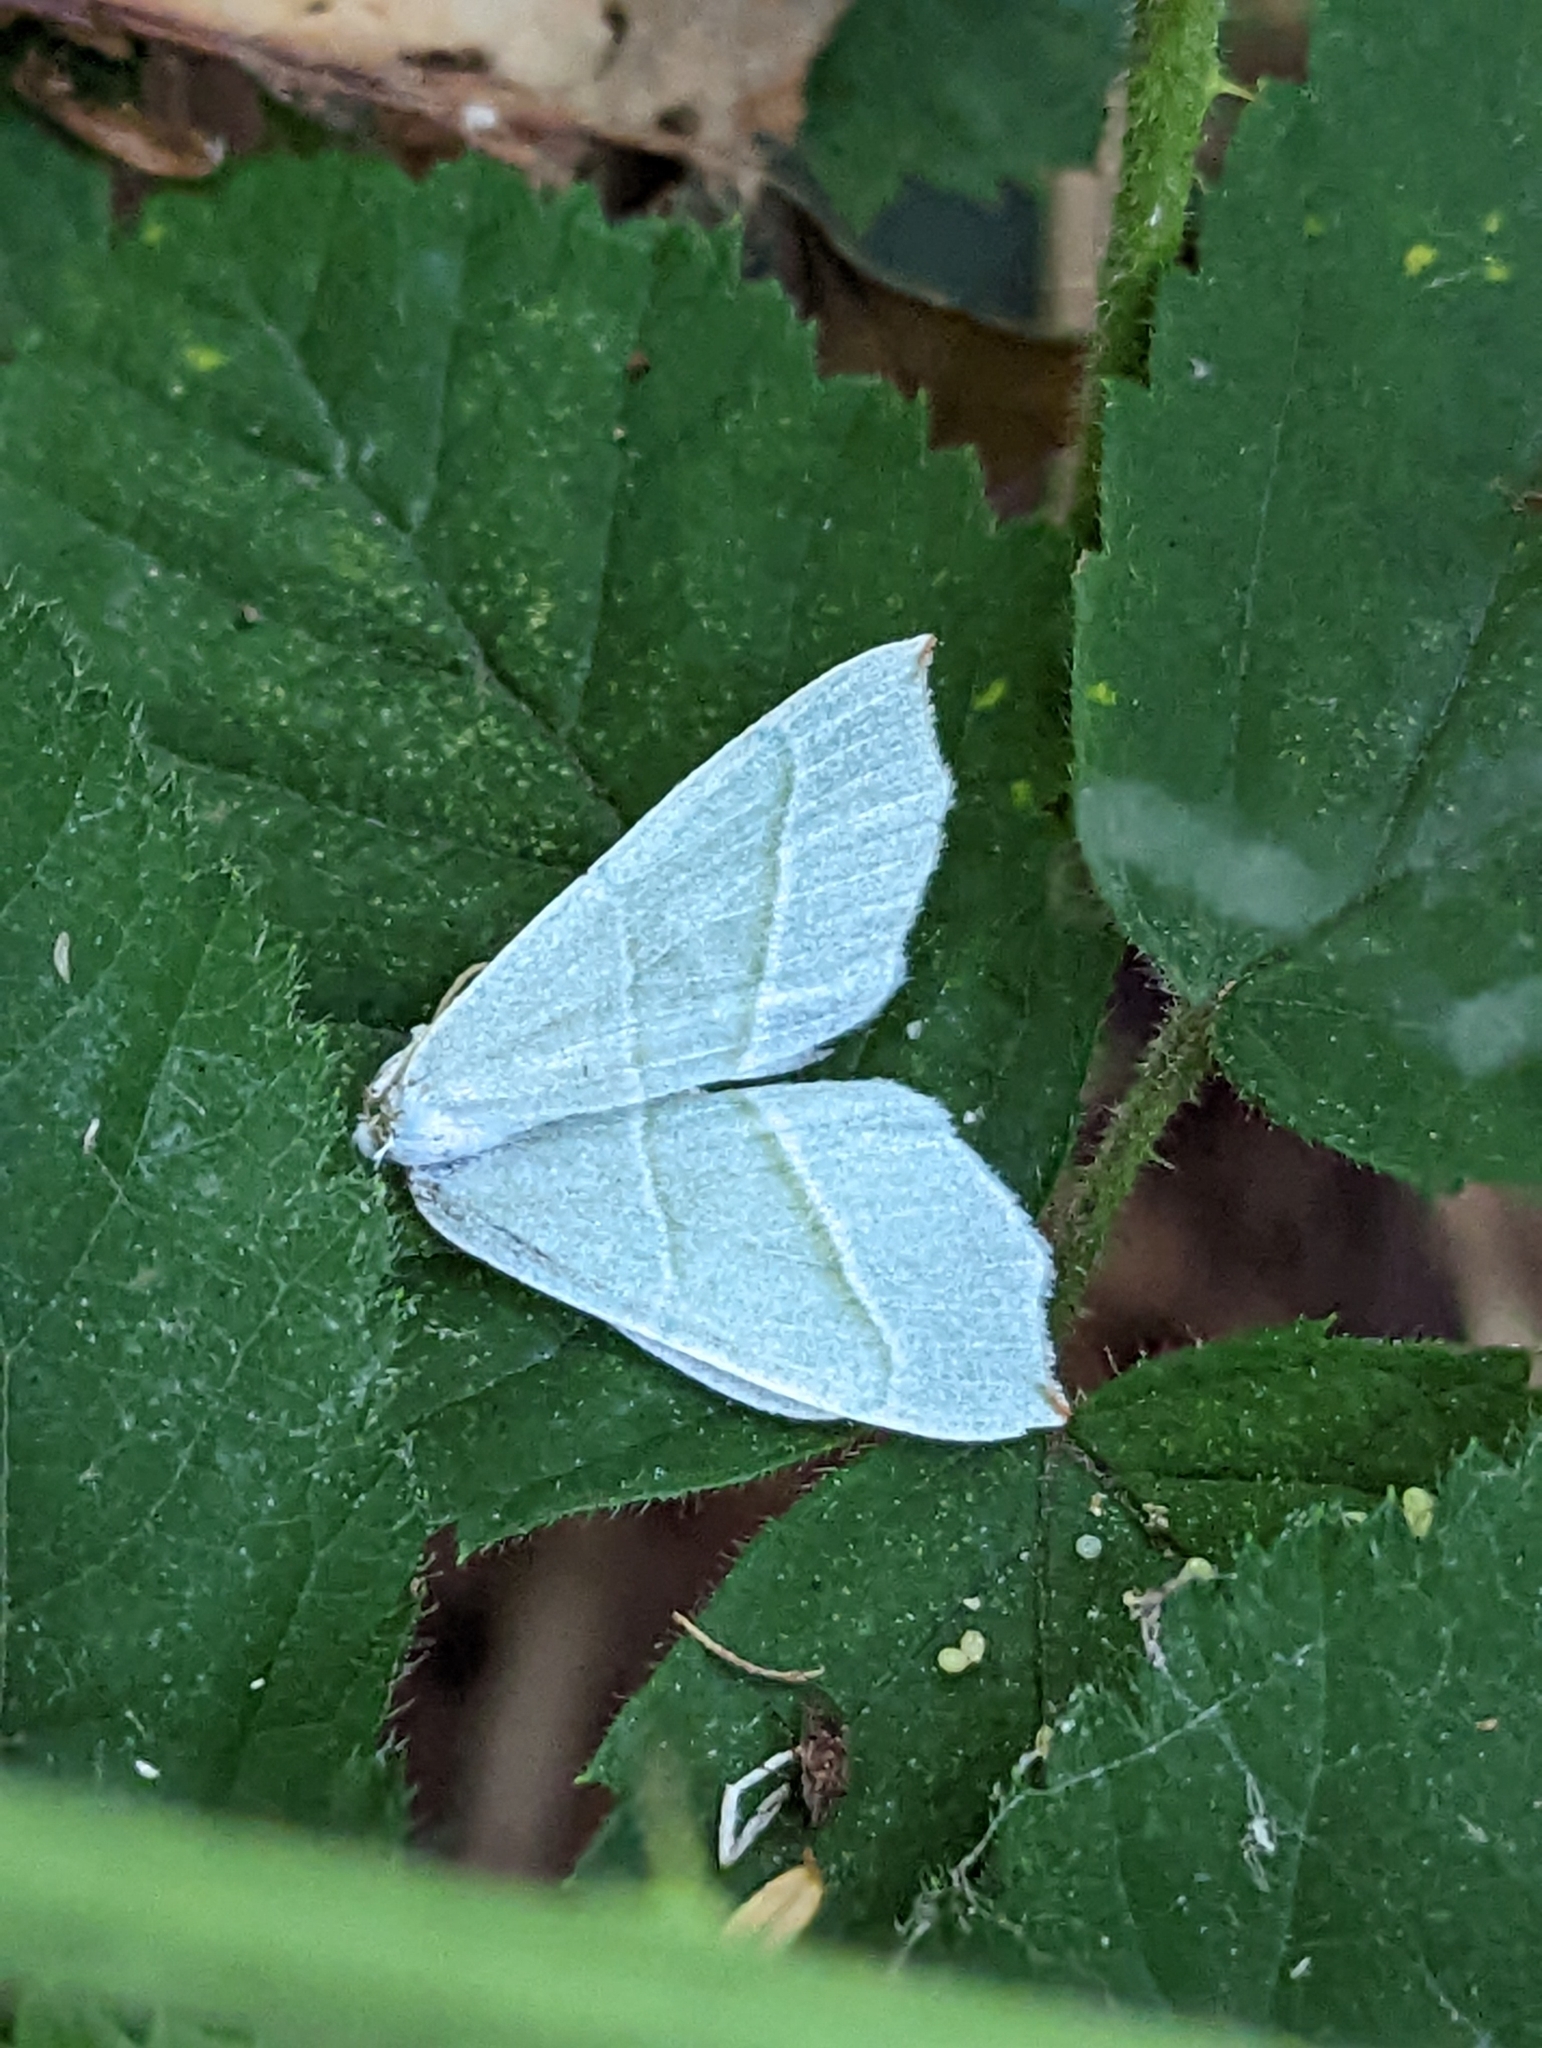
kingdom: Animalia
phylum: Arthropoda
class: Insecta
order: Lepidoptera
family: Geometridae
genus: Campaea
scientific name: Campaea margaritaria
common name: Light emerald
